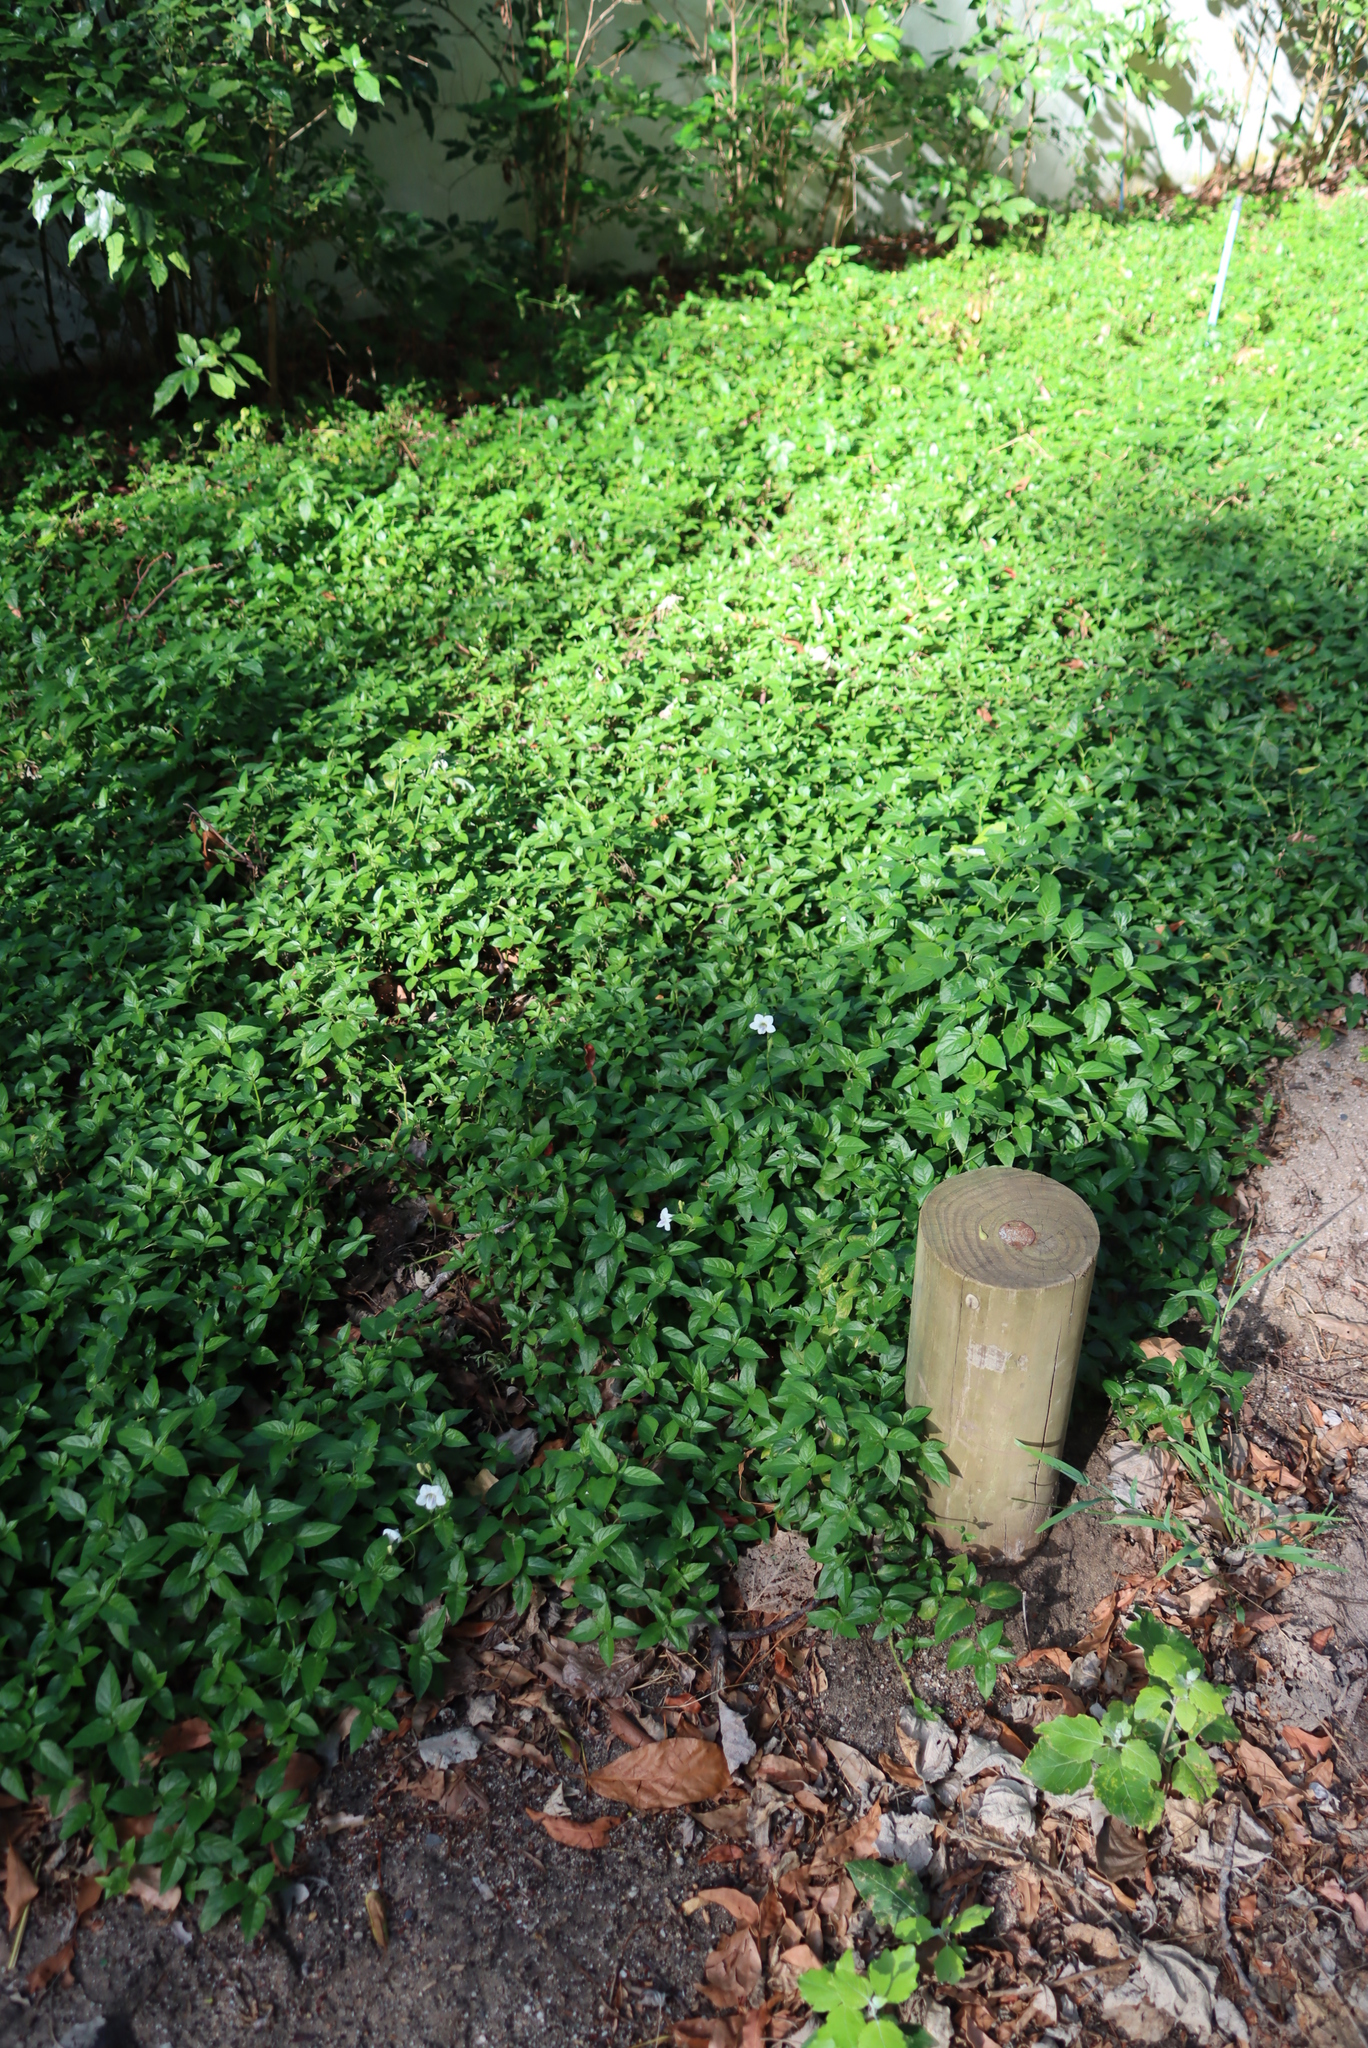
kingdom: Plantae
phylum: Tracheophyta
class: Magnoliopsida
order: Lamiales
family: Acanthaceae
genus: Asystasia
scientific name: Asystasia intrusa
